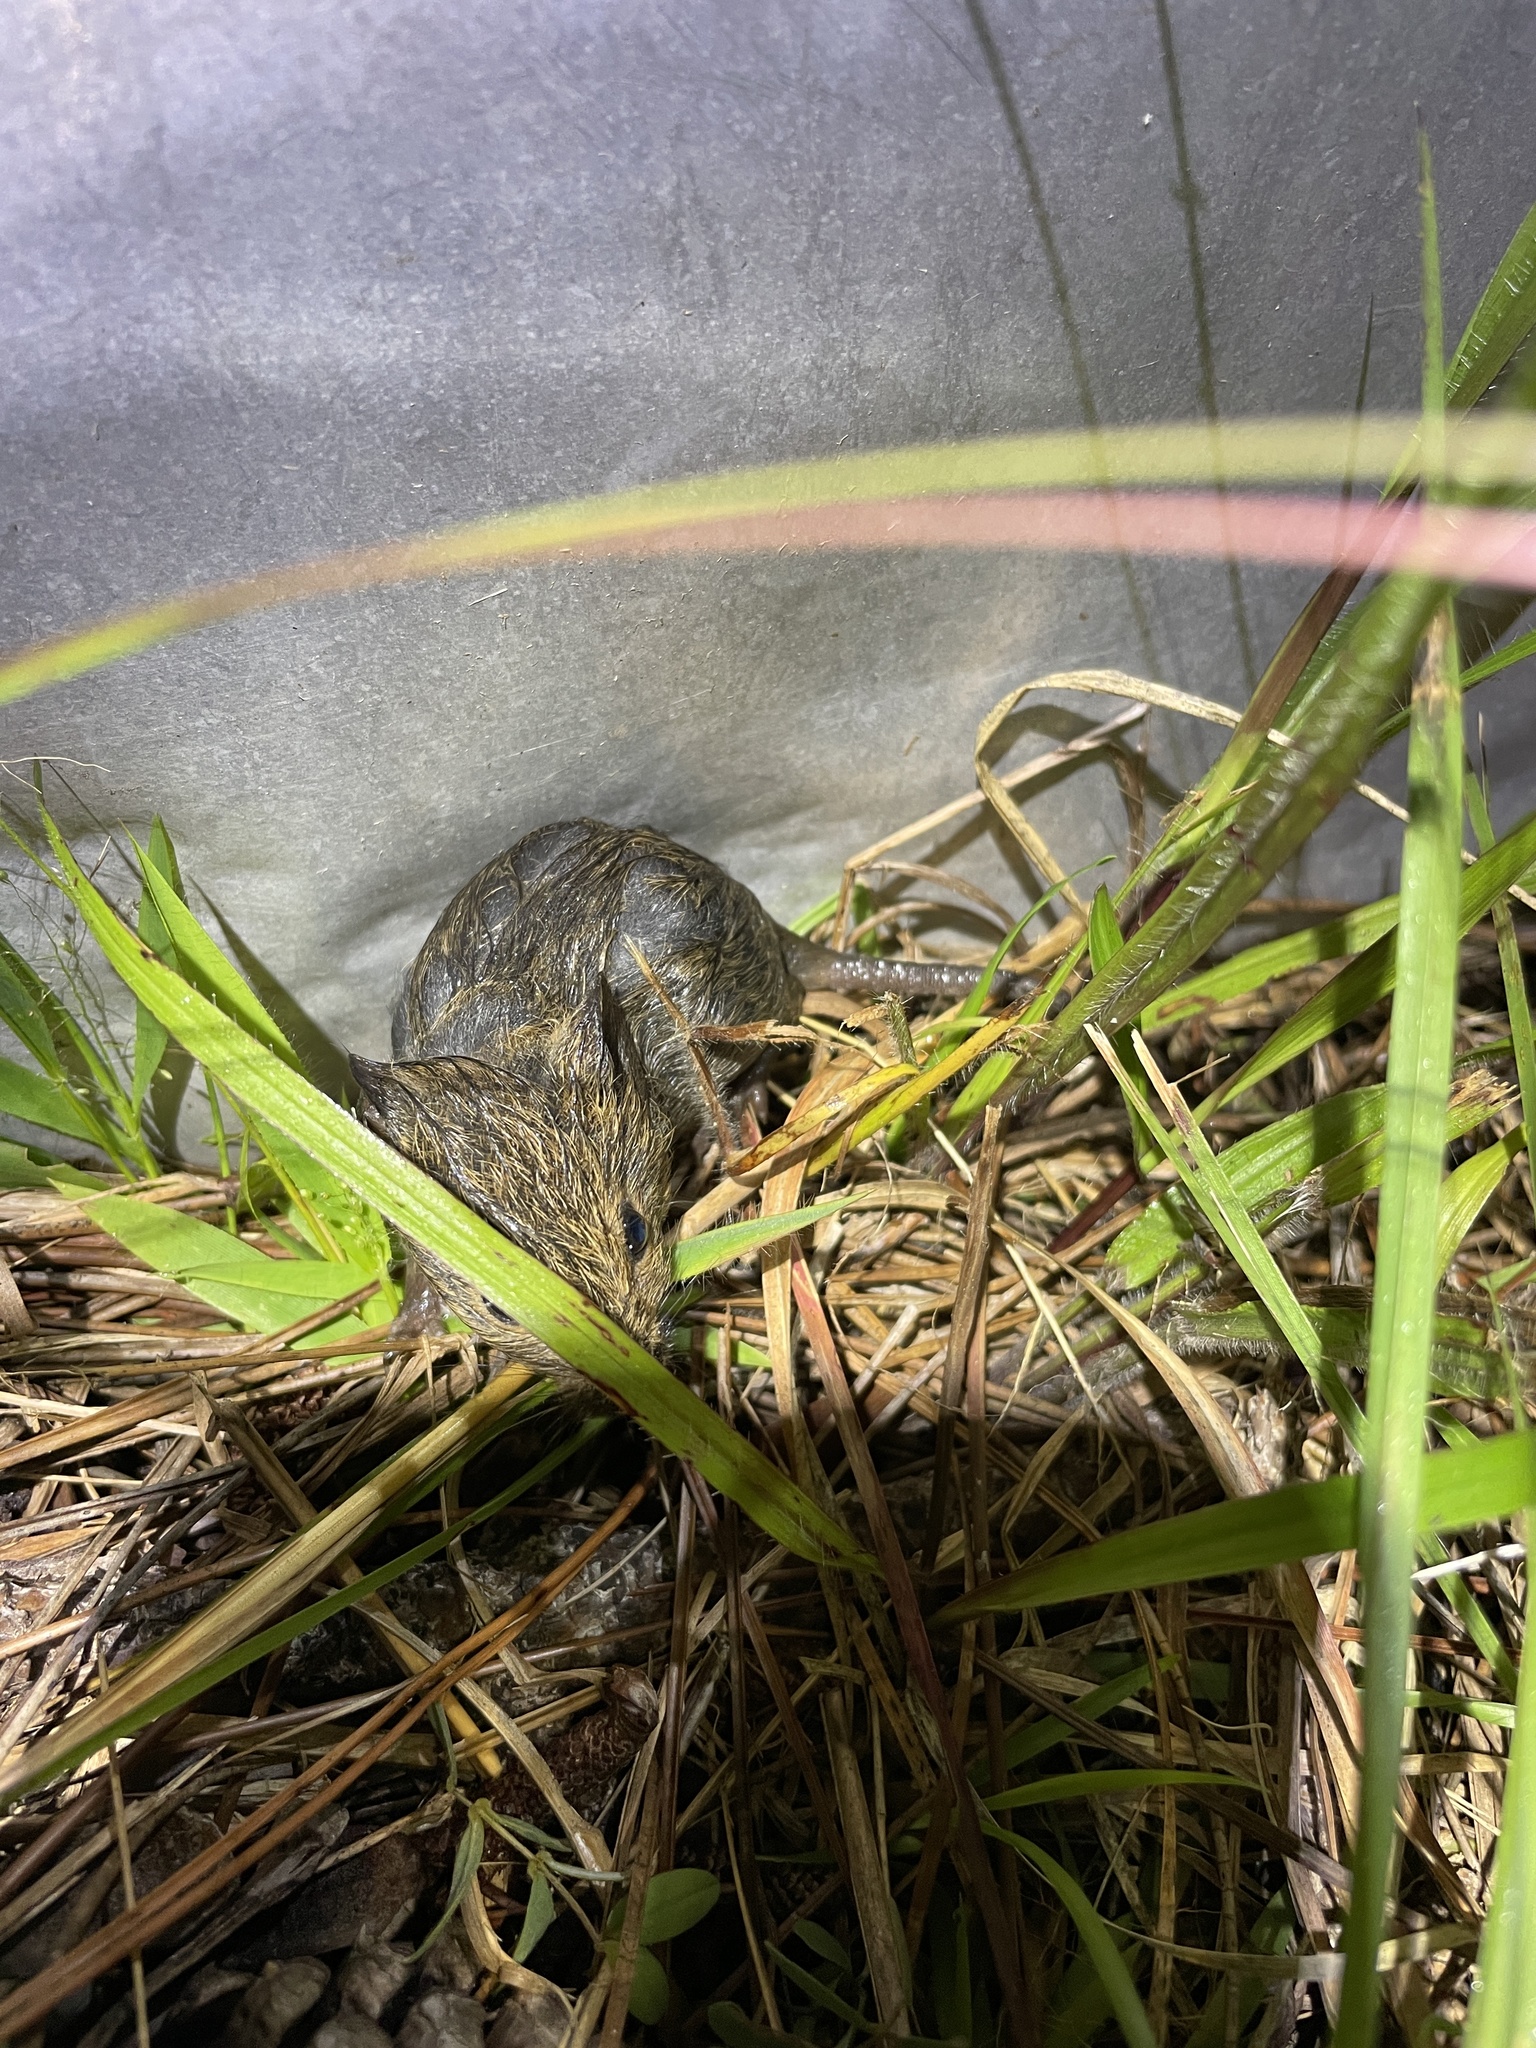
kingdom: Animalia
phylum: Chordata
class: Mammalia
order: Rodentia
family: Cricetidae
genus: Sigmodon
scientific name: Sigmodon hispidus
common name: Hispid cotton rat
